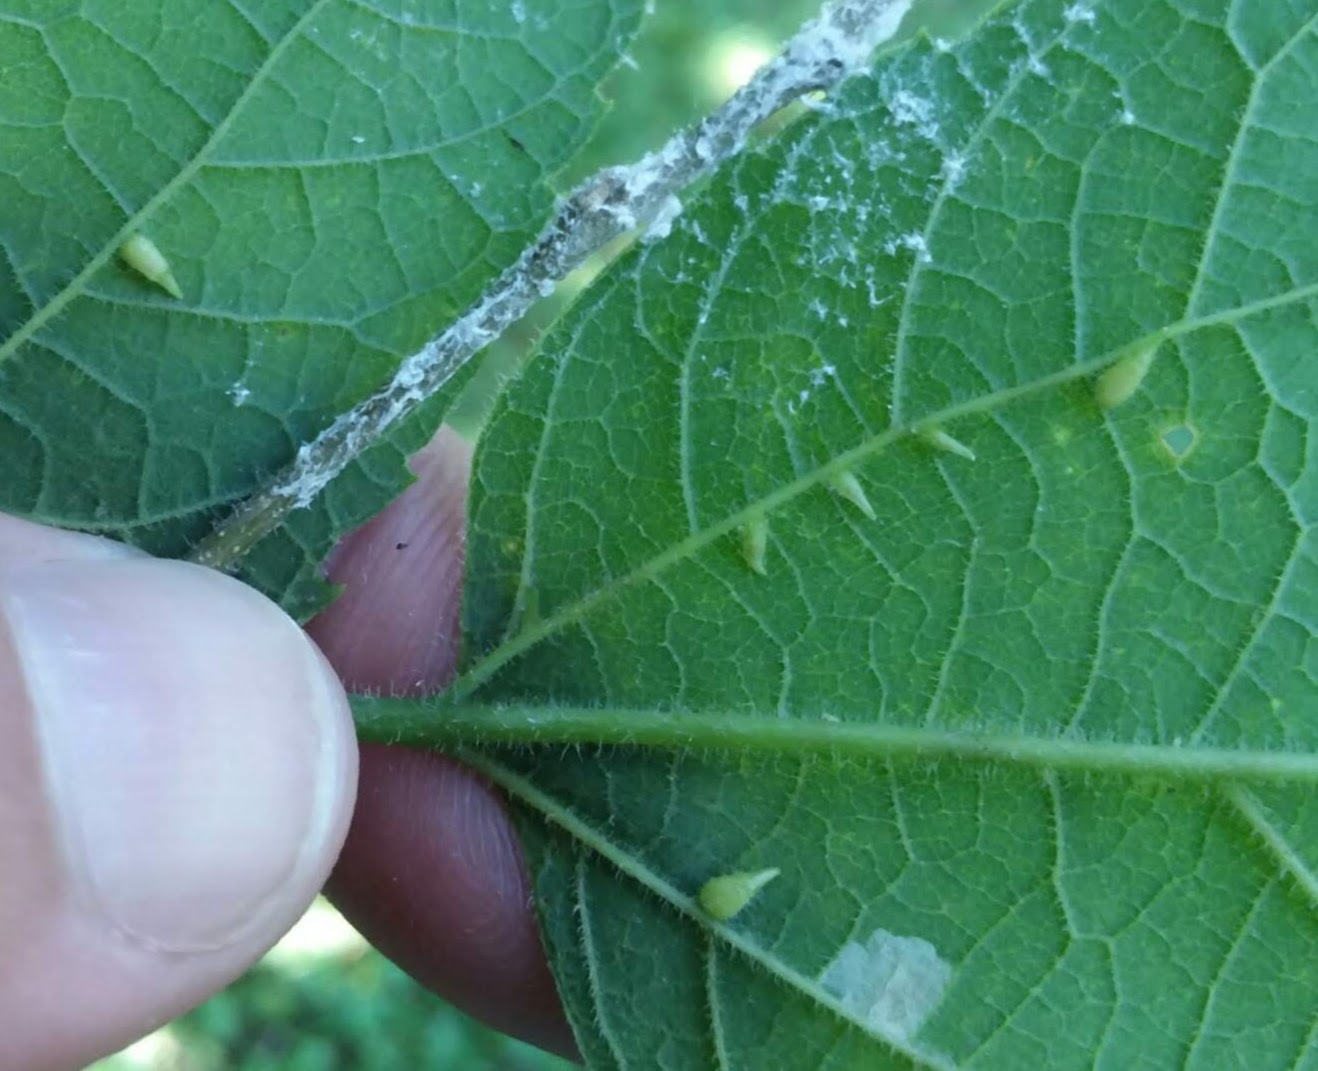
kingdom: Animalia
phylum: Arthropoda
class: Insecta
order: Diptera
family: Cecidomyiidae
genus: Celticecis
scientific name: Celticecis supina
